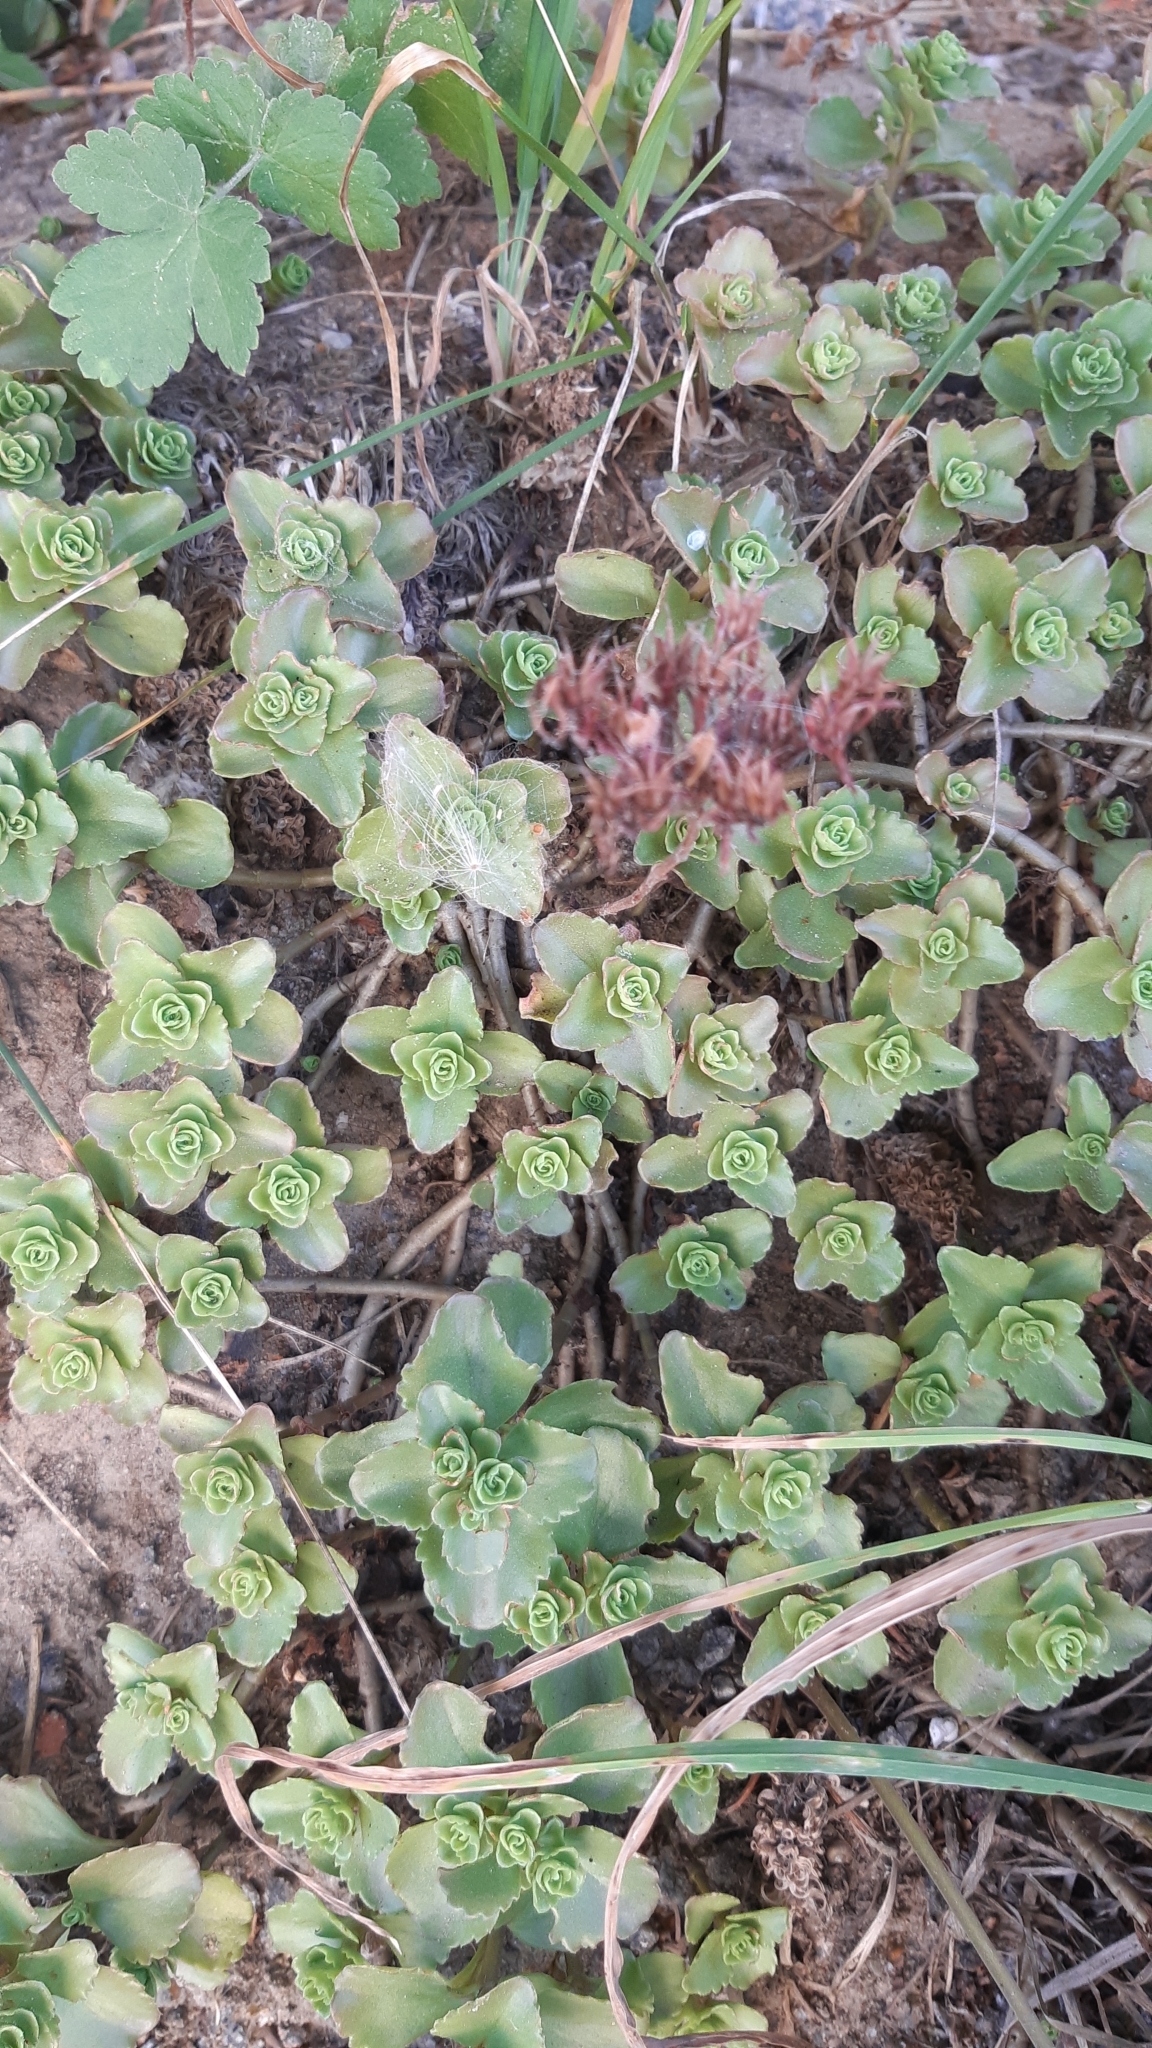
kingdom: Plantae
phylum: Tracheophyta
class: Magnoliopsida
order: Saxifragales
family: Crassulaceae
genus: Phedimus
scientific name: Phedimus spurius
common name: Caucasian stonecrop
